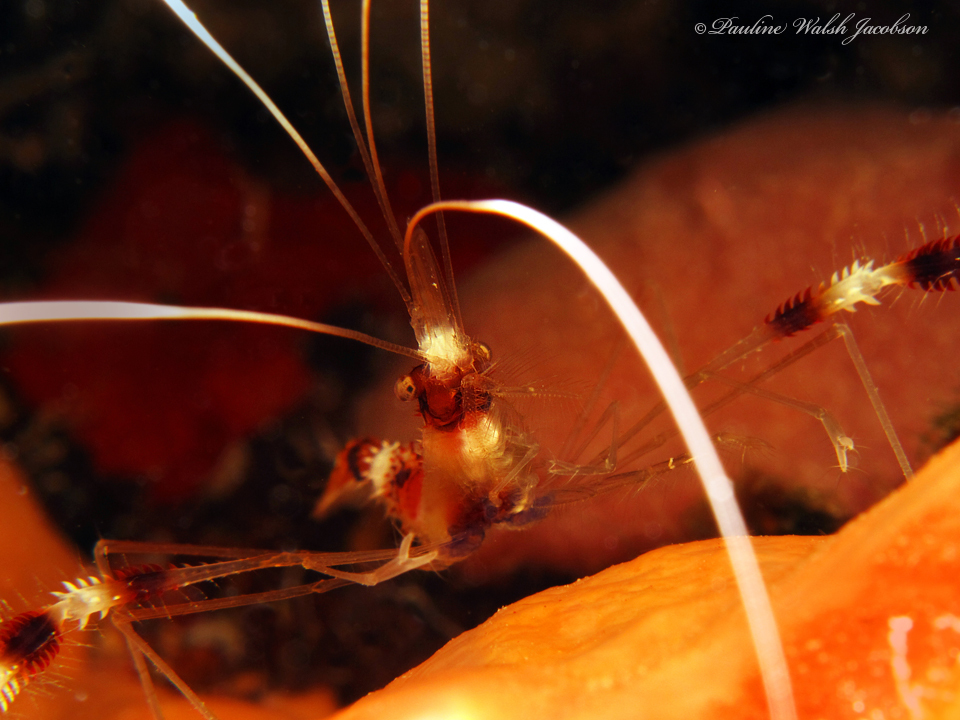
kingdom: Animalia
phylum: Arthropoda
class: Malacostraca
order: Decapoda
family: Stenopodidae
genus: Stenopus
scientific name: Stenopus hispidus
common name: Banded coral shrimp
